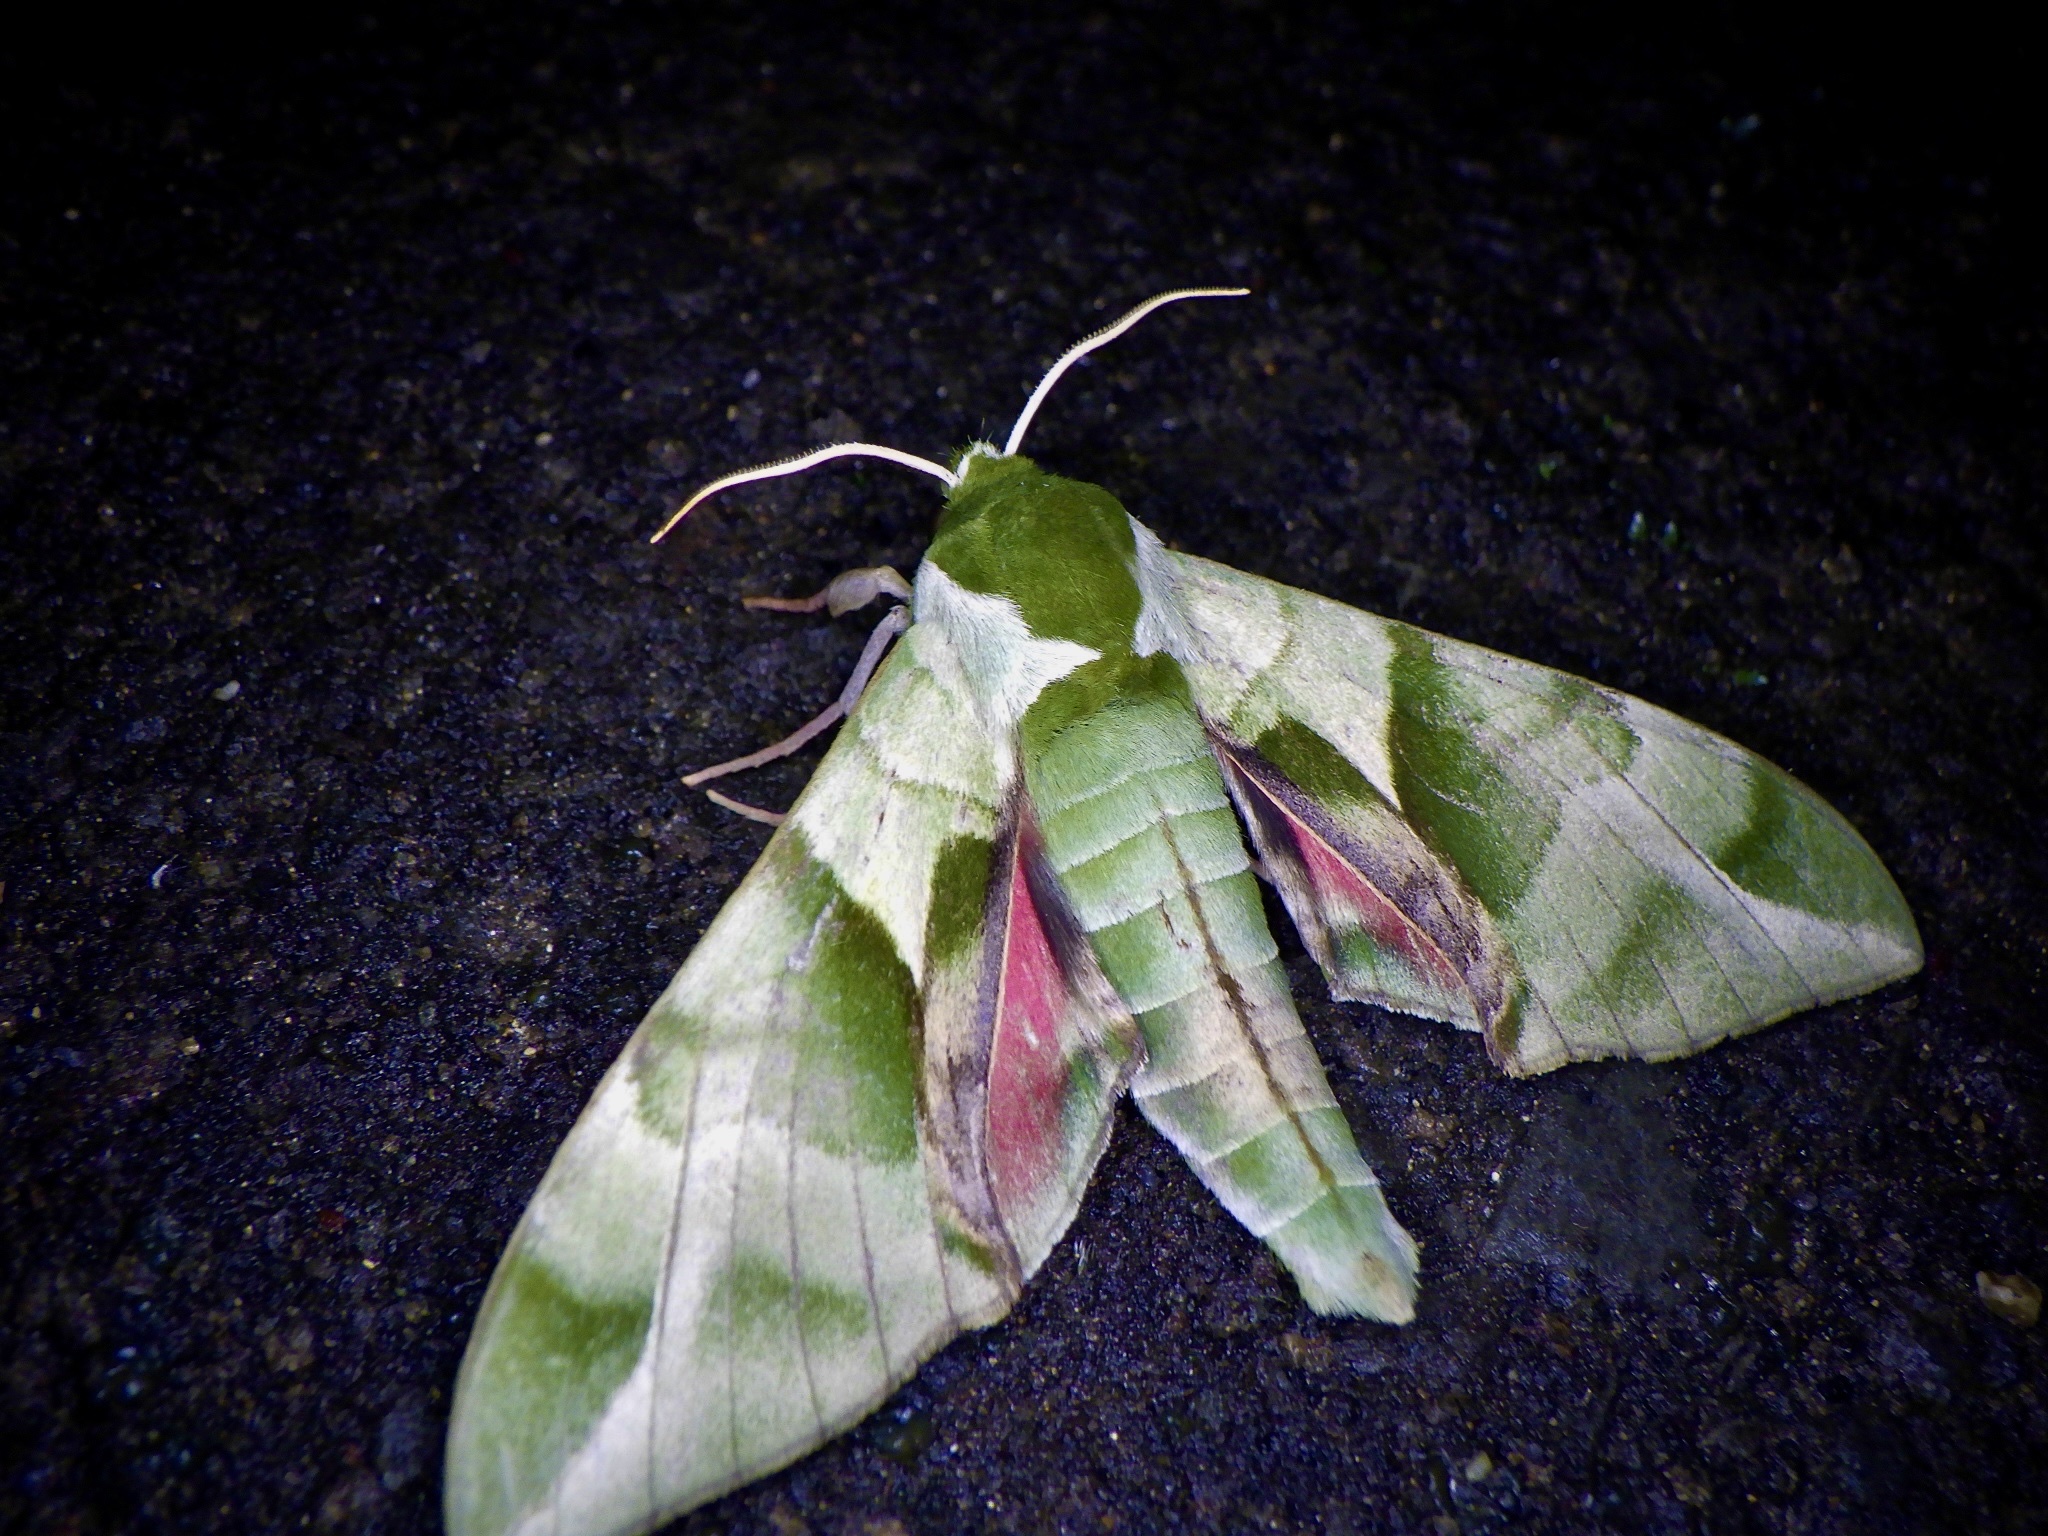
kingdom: Animalia
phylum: Arthropoda
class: Insecta
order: Lepidoptera
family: Sphingidae
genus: Callambulyx
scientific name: Callambulyx tatarinovii
